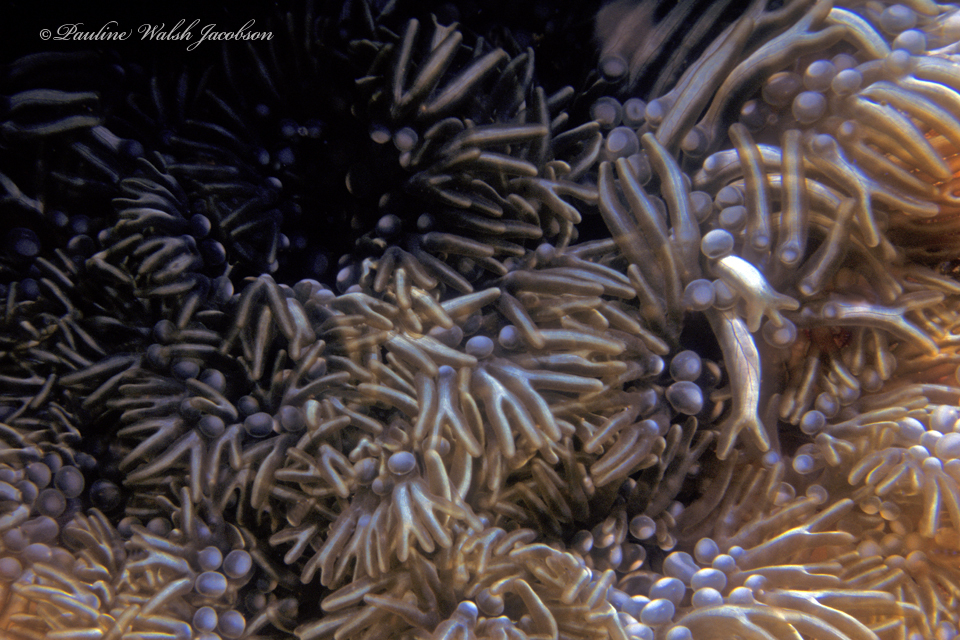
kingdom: Animalia
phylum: Cnidaria
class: Anthozoa
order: Actiniaria
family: Aliciidae
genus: Lebrunia
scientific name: Lebrunia neglecta
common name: Branching anemone
